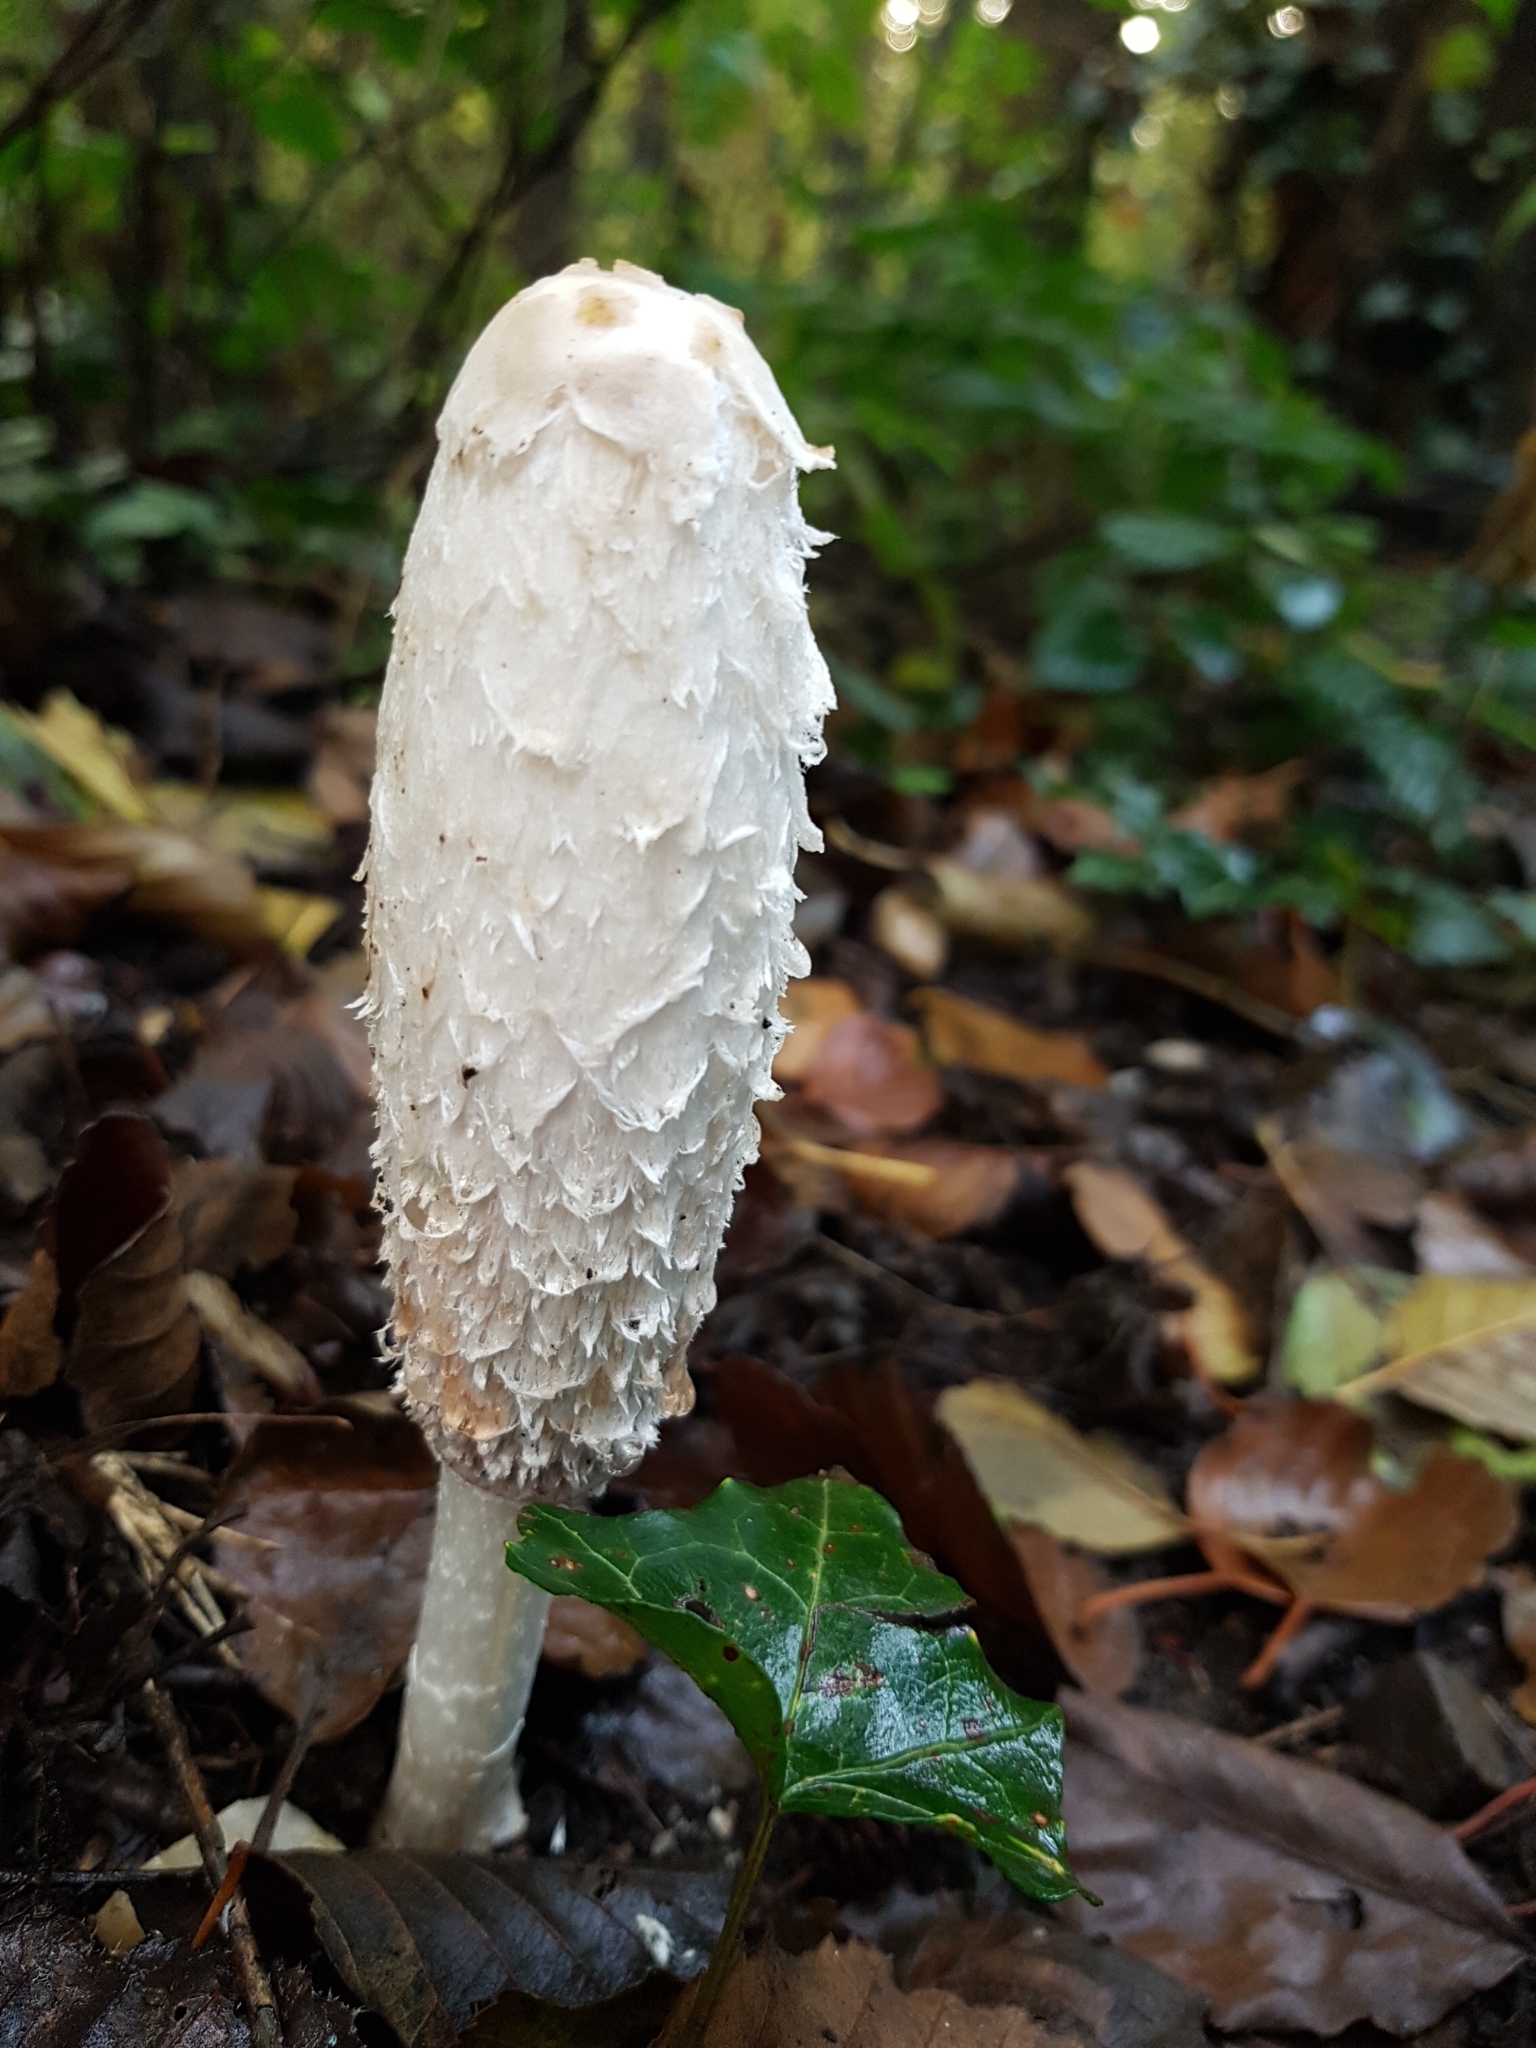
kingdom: Fungi
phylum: Basidiomycota
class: Agaricomycetes
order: Agaricales
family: Agaricaceae
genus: Coprinus
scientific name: Coprinus comatus
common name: Lawyer's wig
